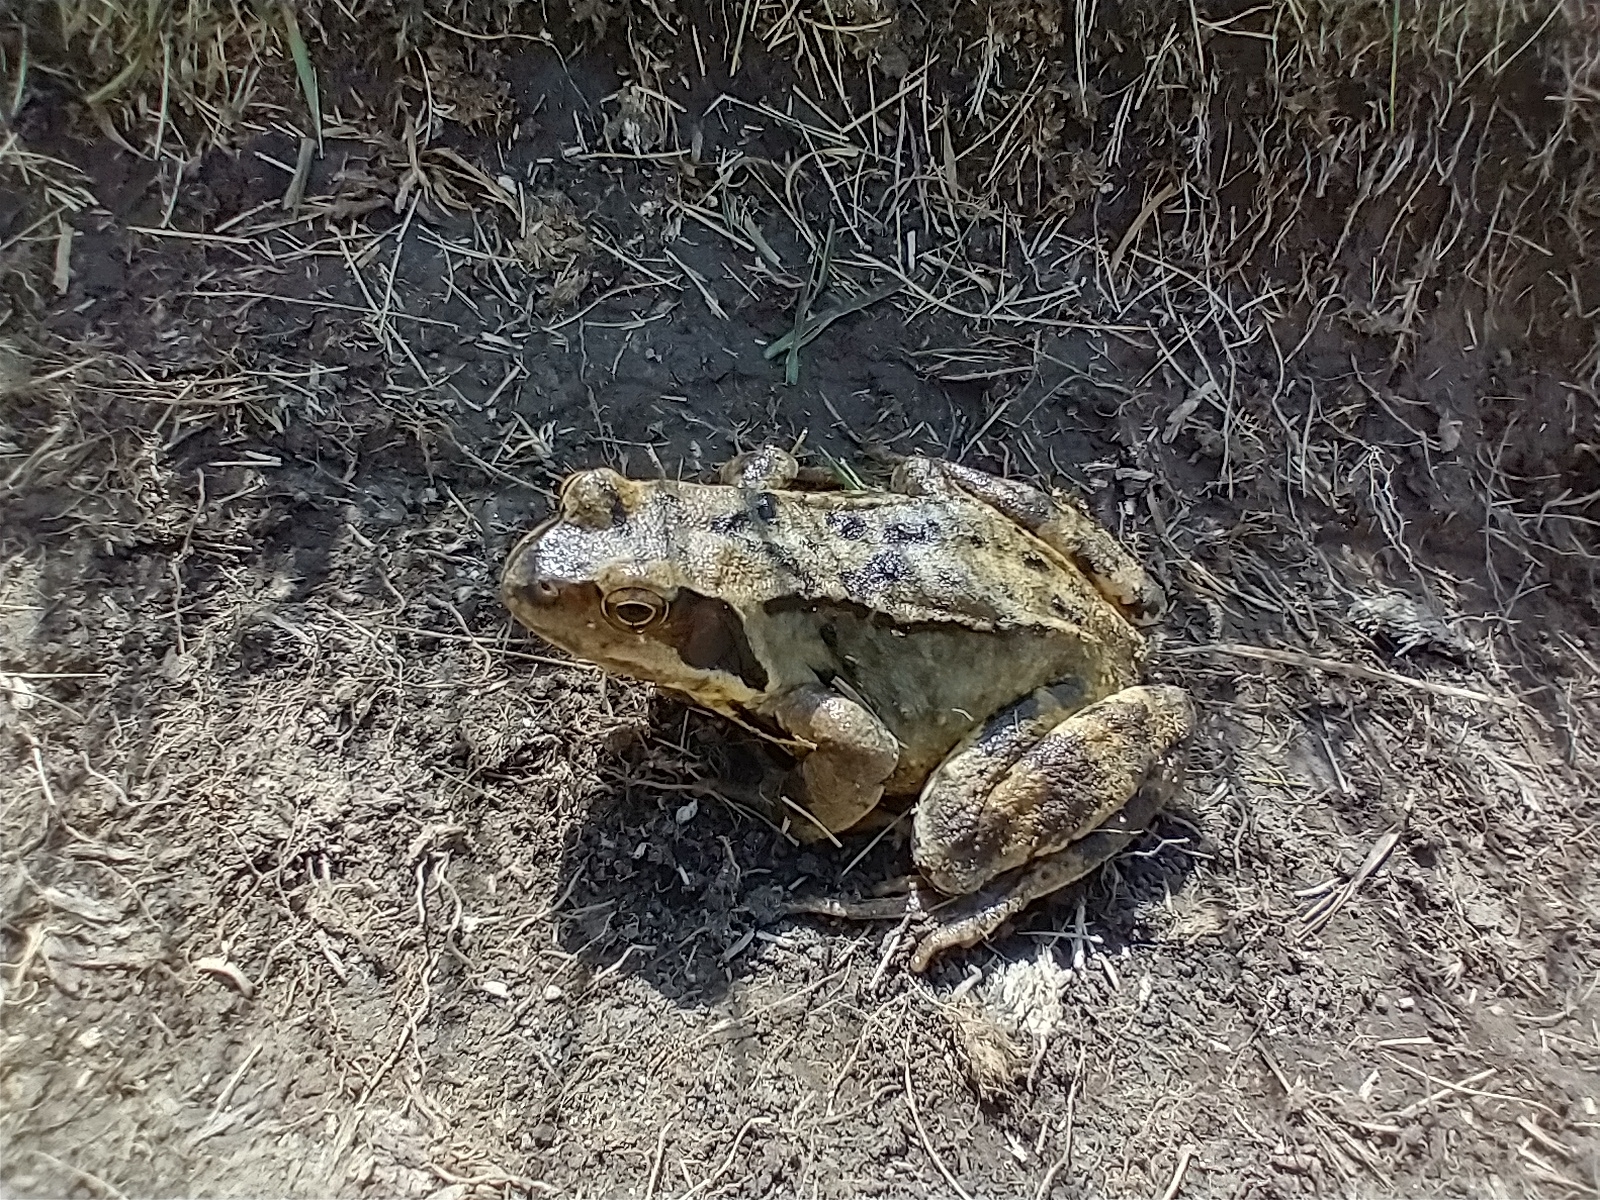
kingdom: Animalia
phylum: Chordata
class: Amphibia
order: Anura
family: Ranidae
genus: Rana
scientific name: Rana temporaria
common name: Common frog
